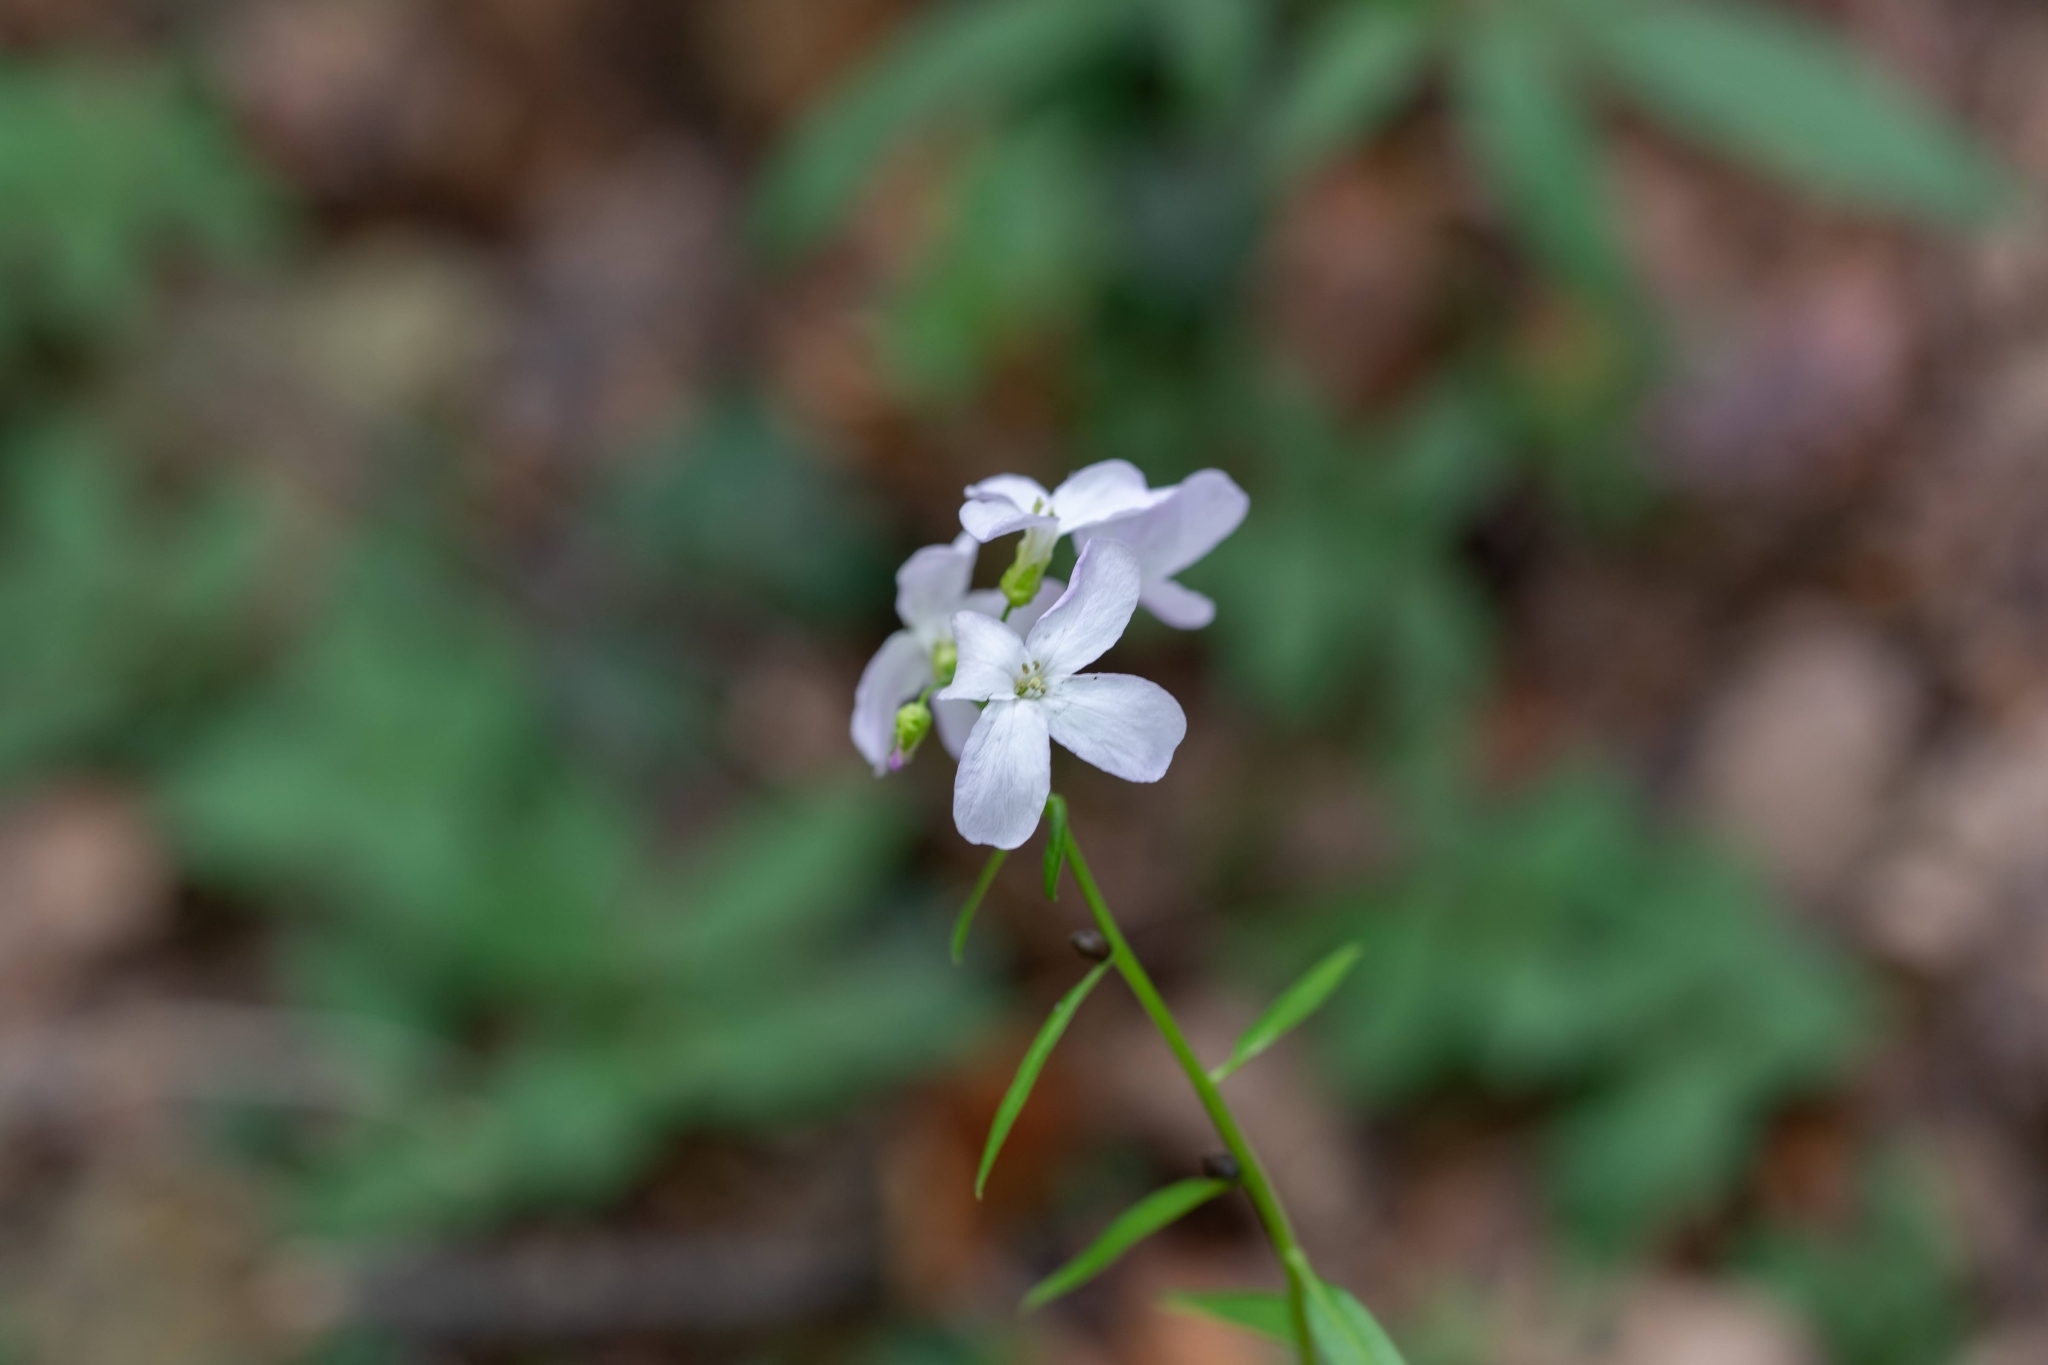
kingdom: Plantae
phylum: Tracheophyta
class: Magnoliopsida
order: Brassicales
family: Brassicaceae
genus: Cardamine
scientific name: Cardamine bulbifera
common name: Coralroot bittercress
